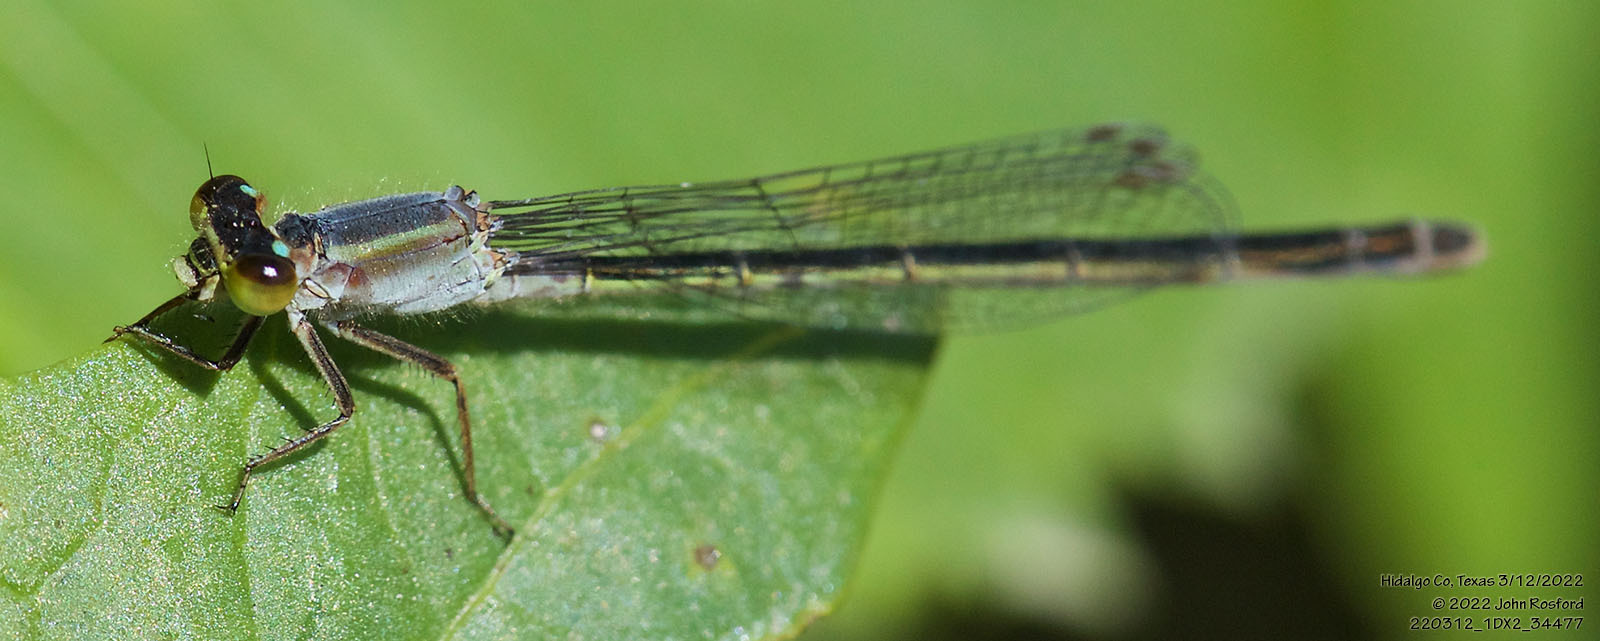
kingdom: Animalia
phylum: Arthropoda
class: Insecta
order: Odonata
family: Coenagrionidae
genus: Ischnura
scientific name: Ischnura ramburii
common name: Rambur's forktail
